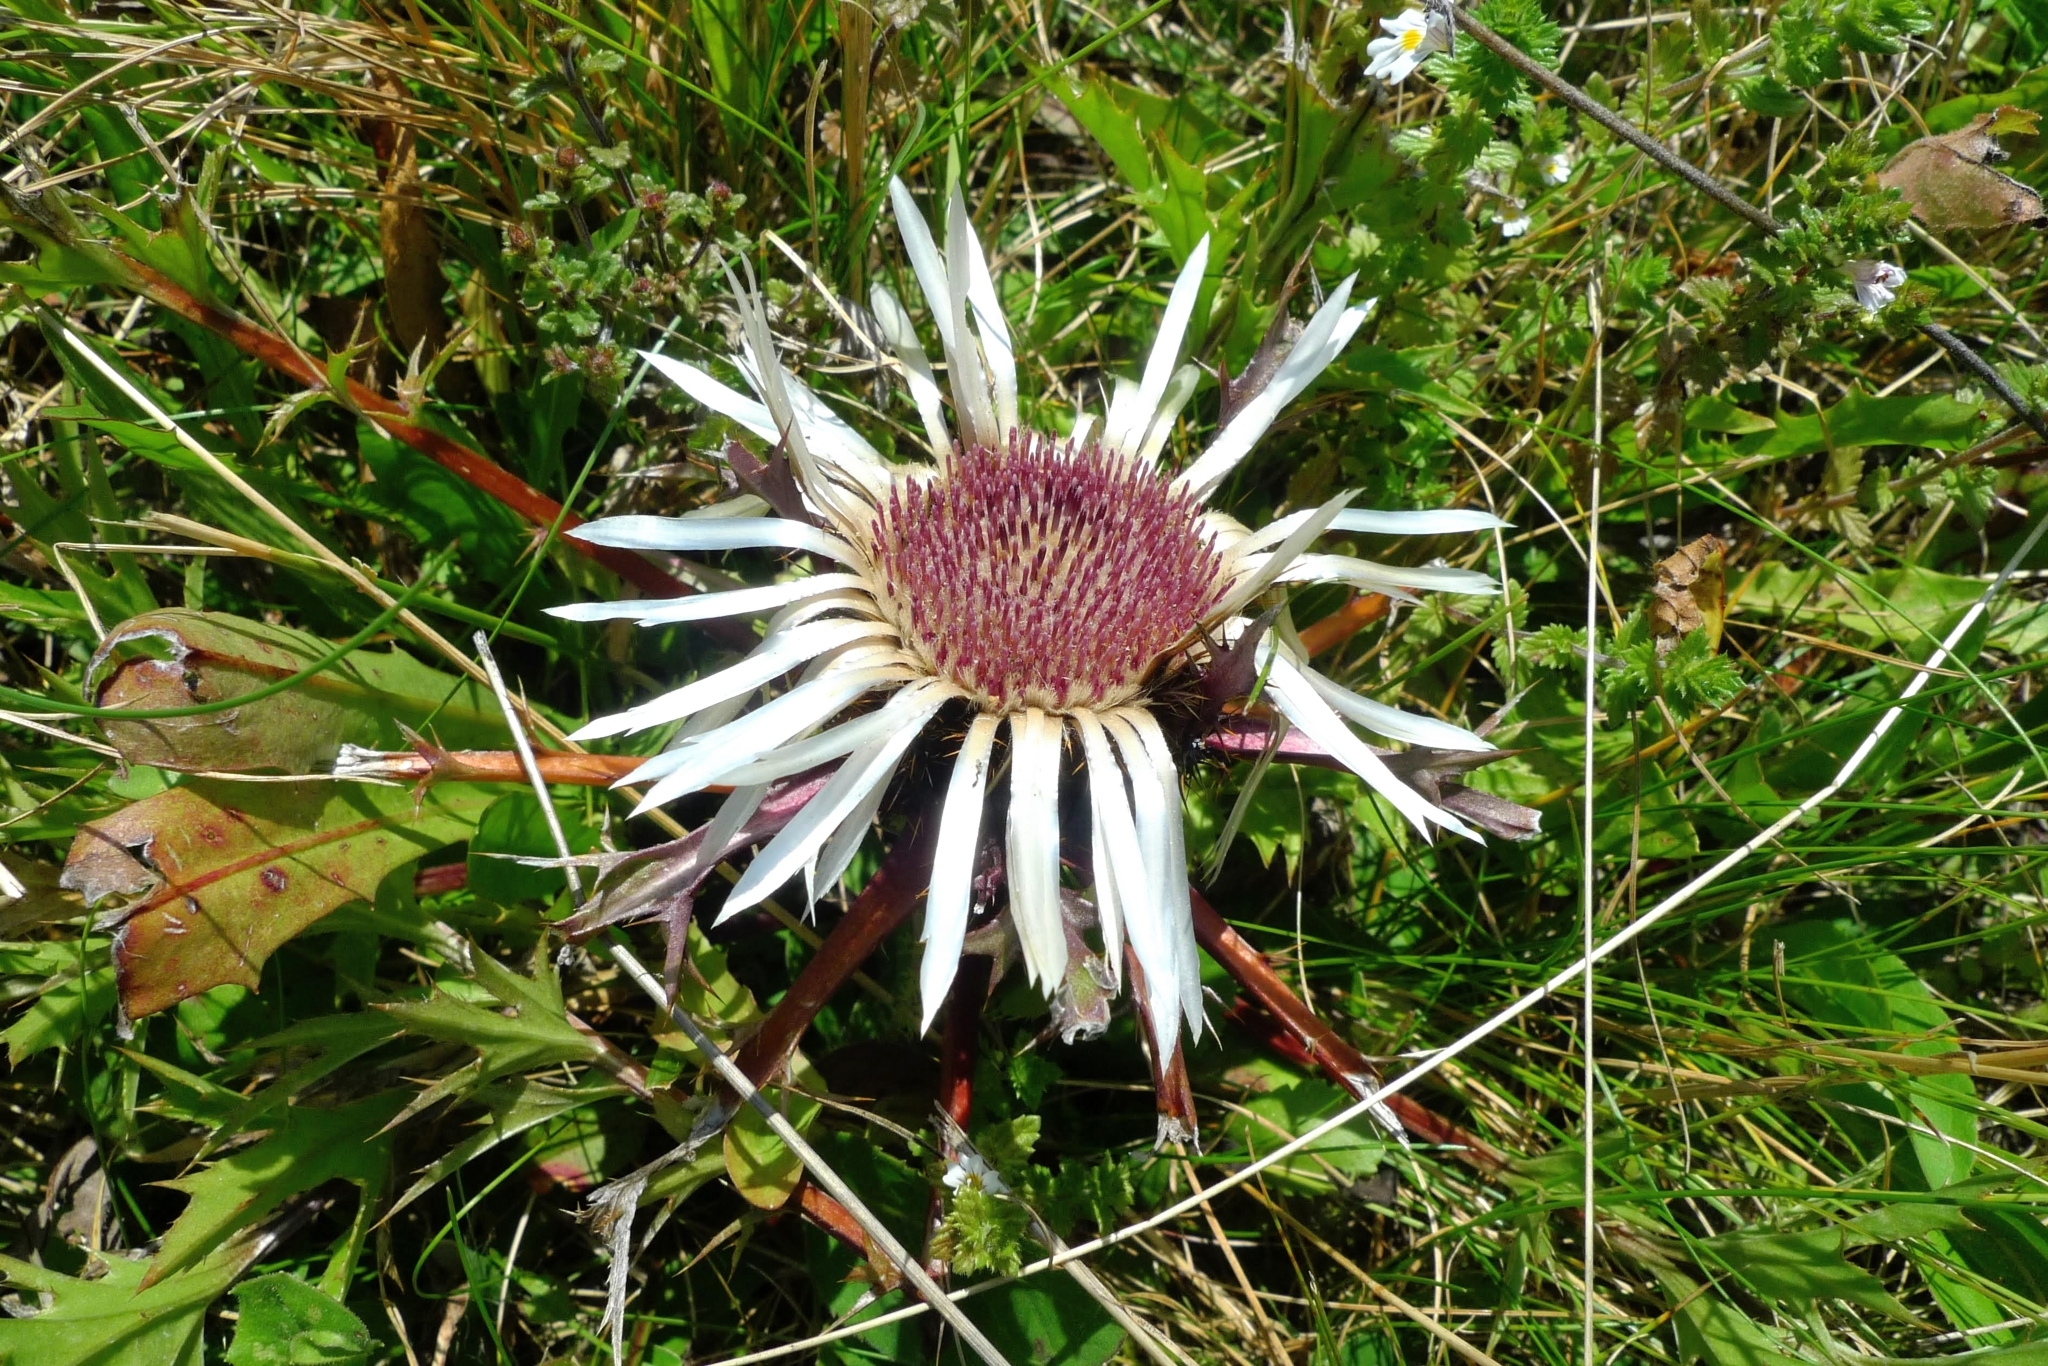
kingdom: Plantae
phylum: Tracheophyta
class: Magnoliopsida
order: Asterales
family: Asteraceae
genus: Carlina
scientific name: Carlina acaulis
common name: Stemless carline thistle
